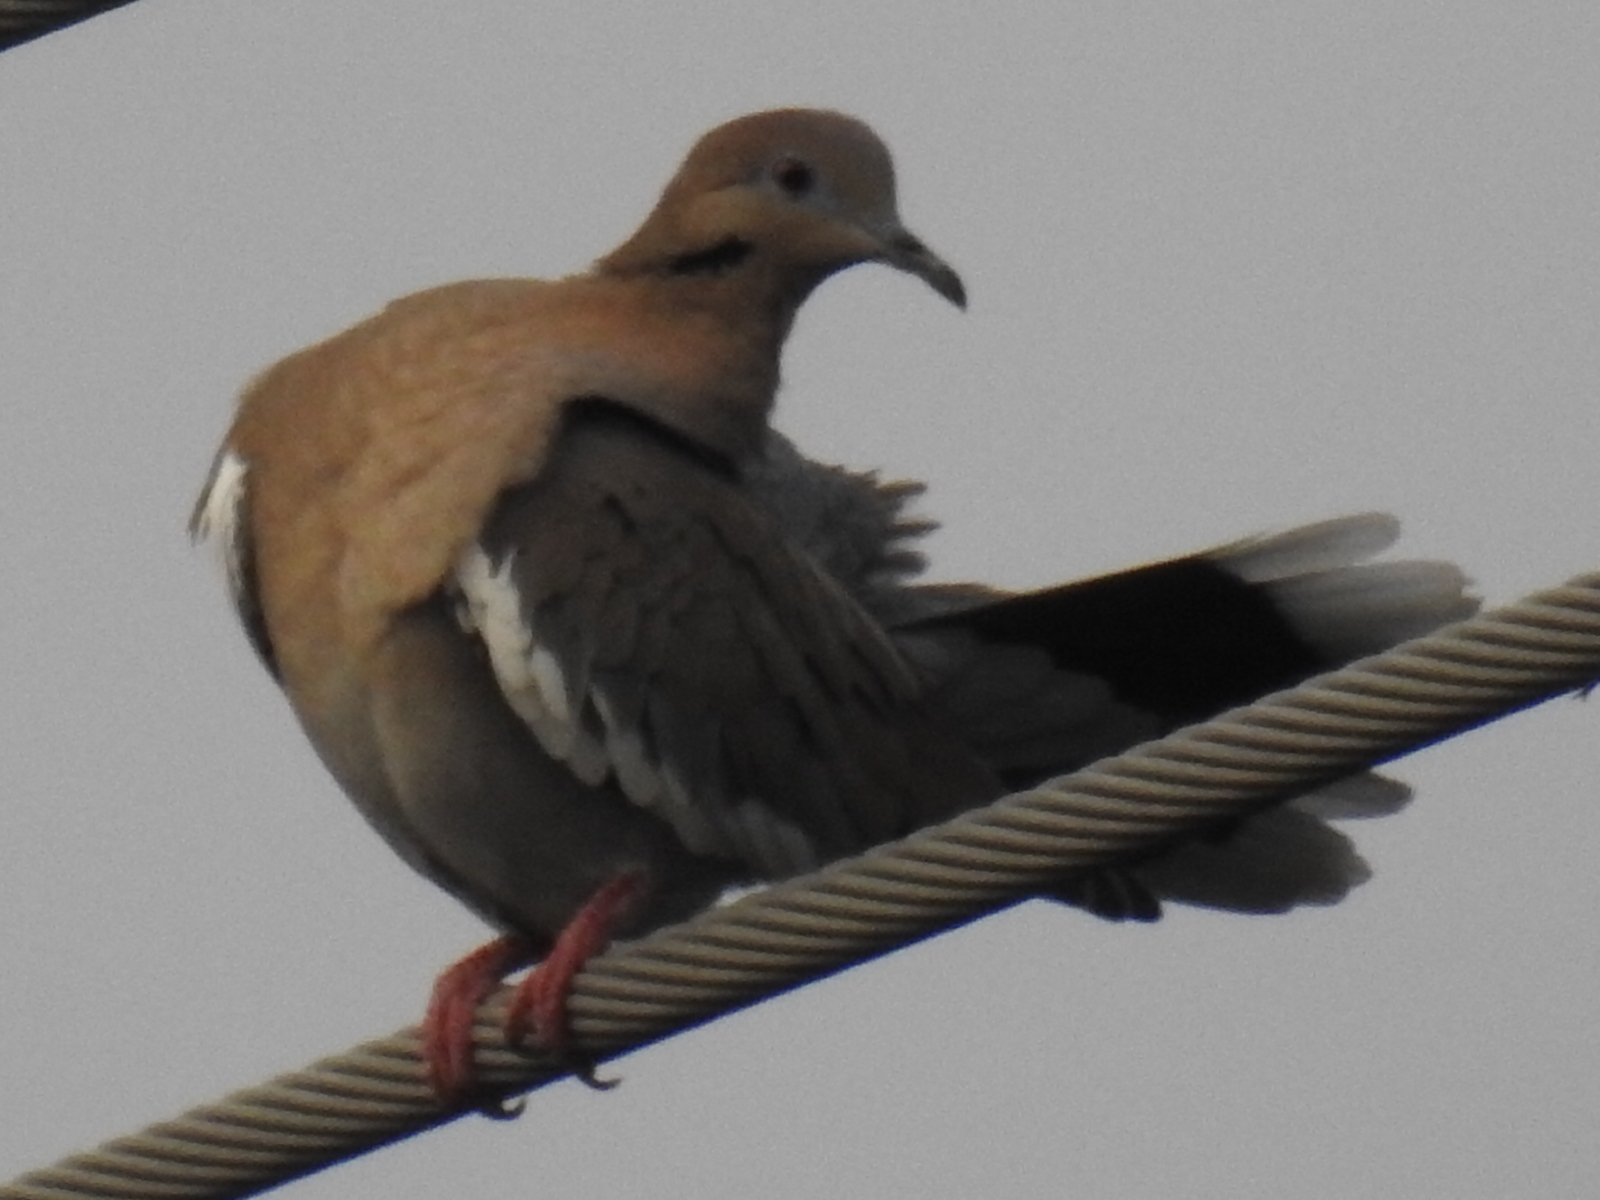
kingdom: Animalia
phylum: Chordata
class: Aves
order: Columbiformes
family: Columbidae
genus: Zenaida
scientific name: Zenaida asiatica
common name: White-winged dove
